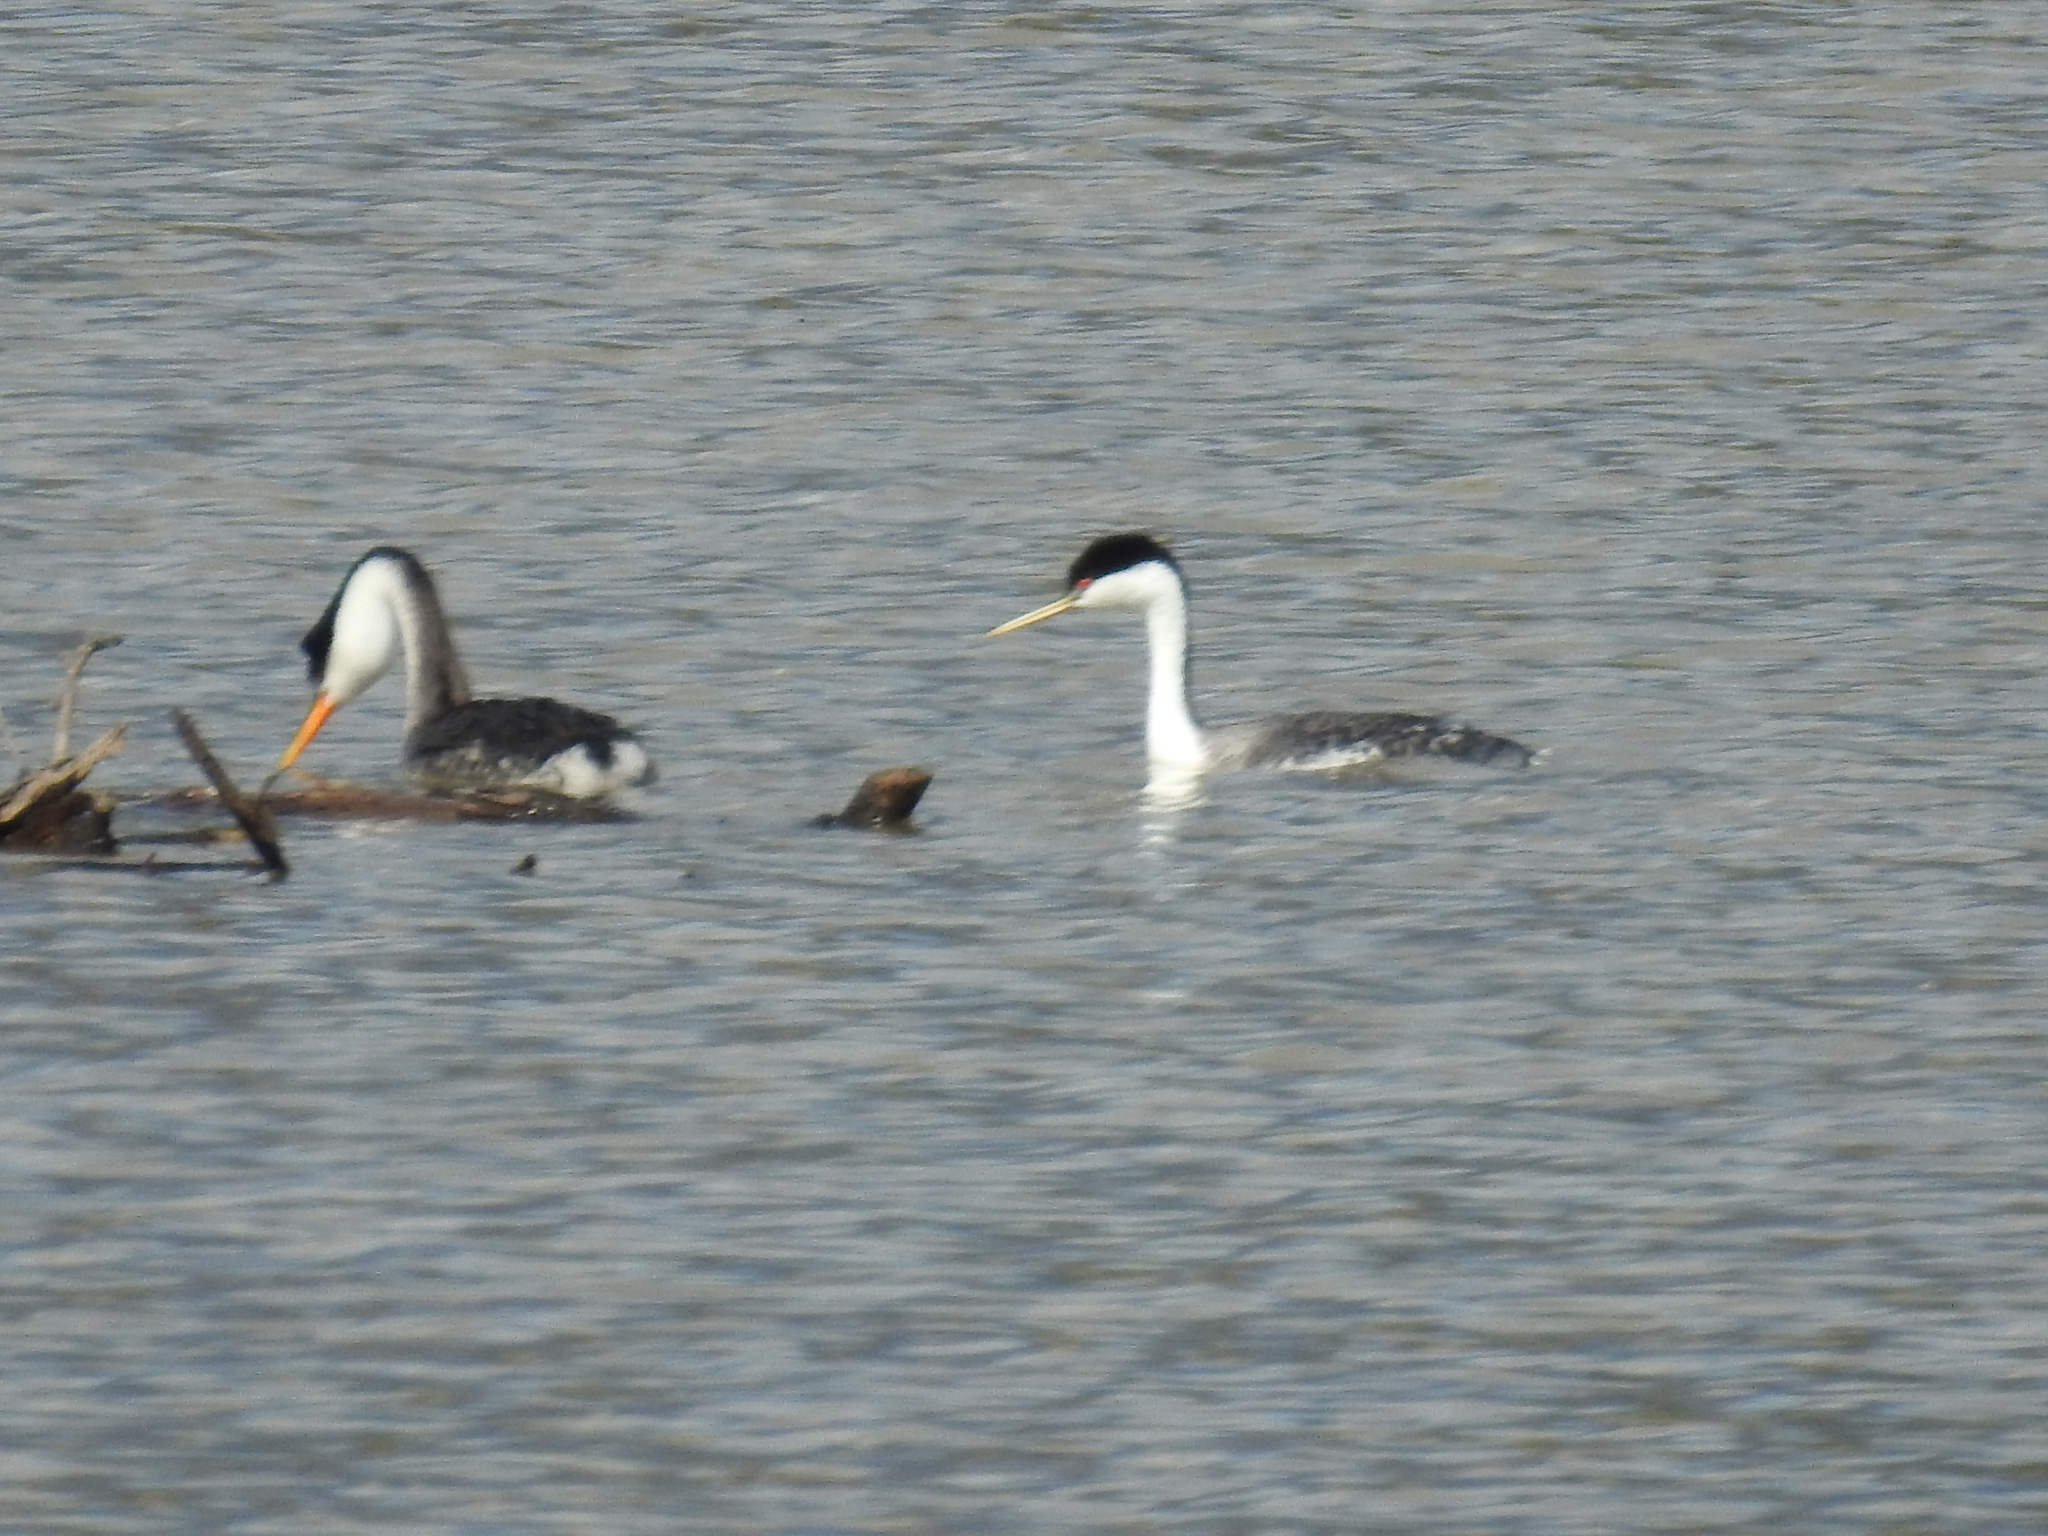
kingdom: Animalia
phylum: Chordata
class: Aves
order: Podicipediformes
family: Podicipedidae
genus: Aechmophorus
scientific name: Aechmophorus occidentalis
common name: Western grebe
